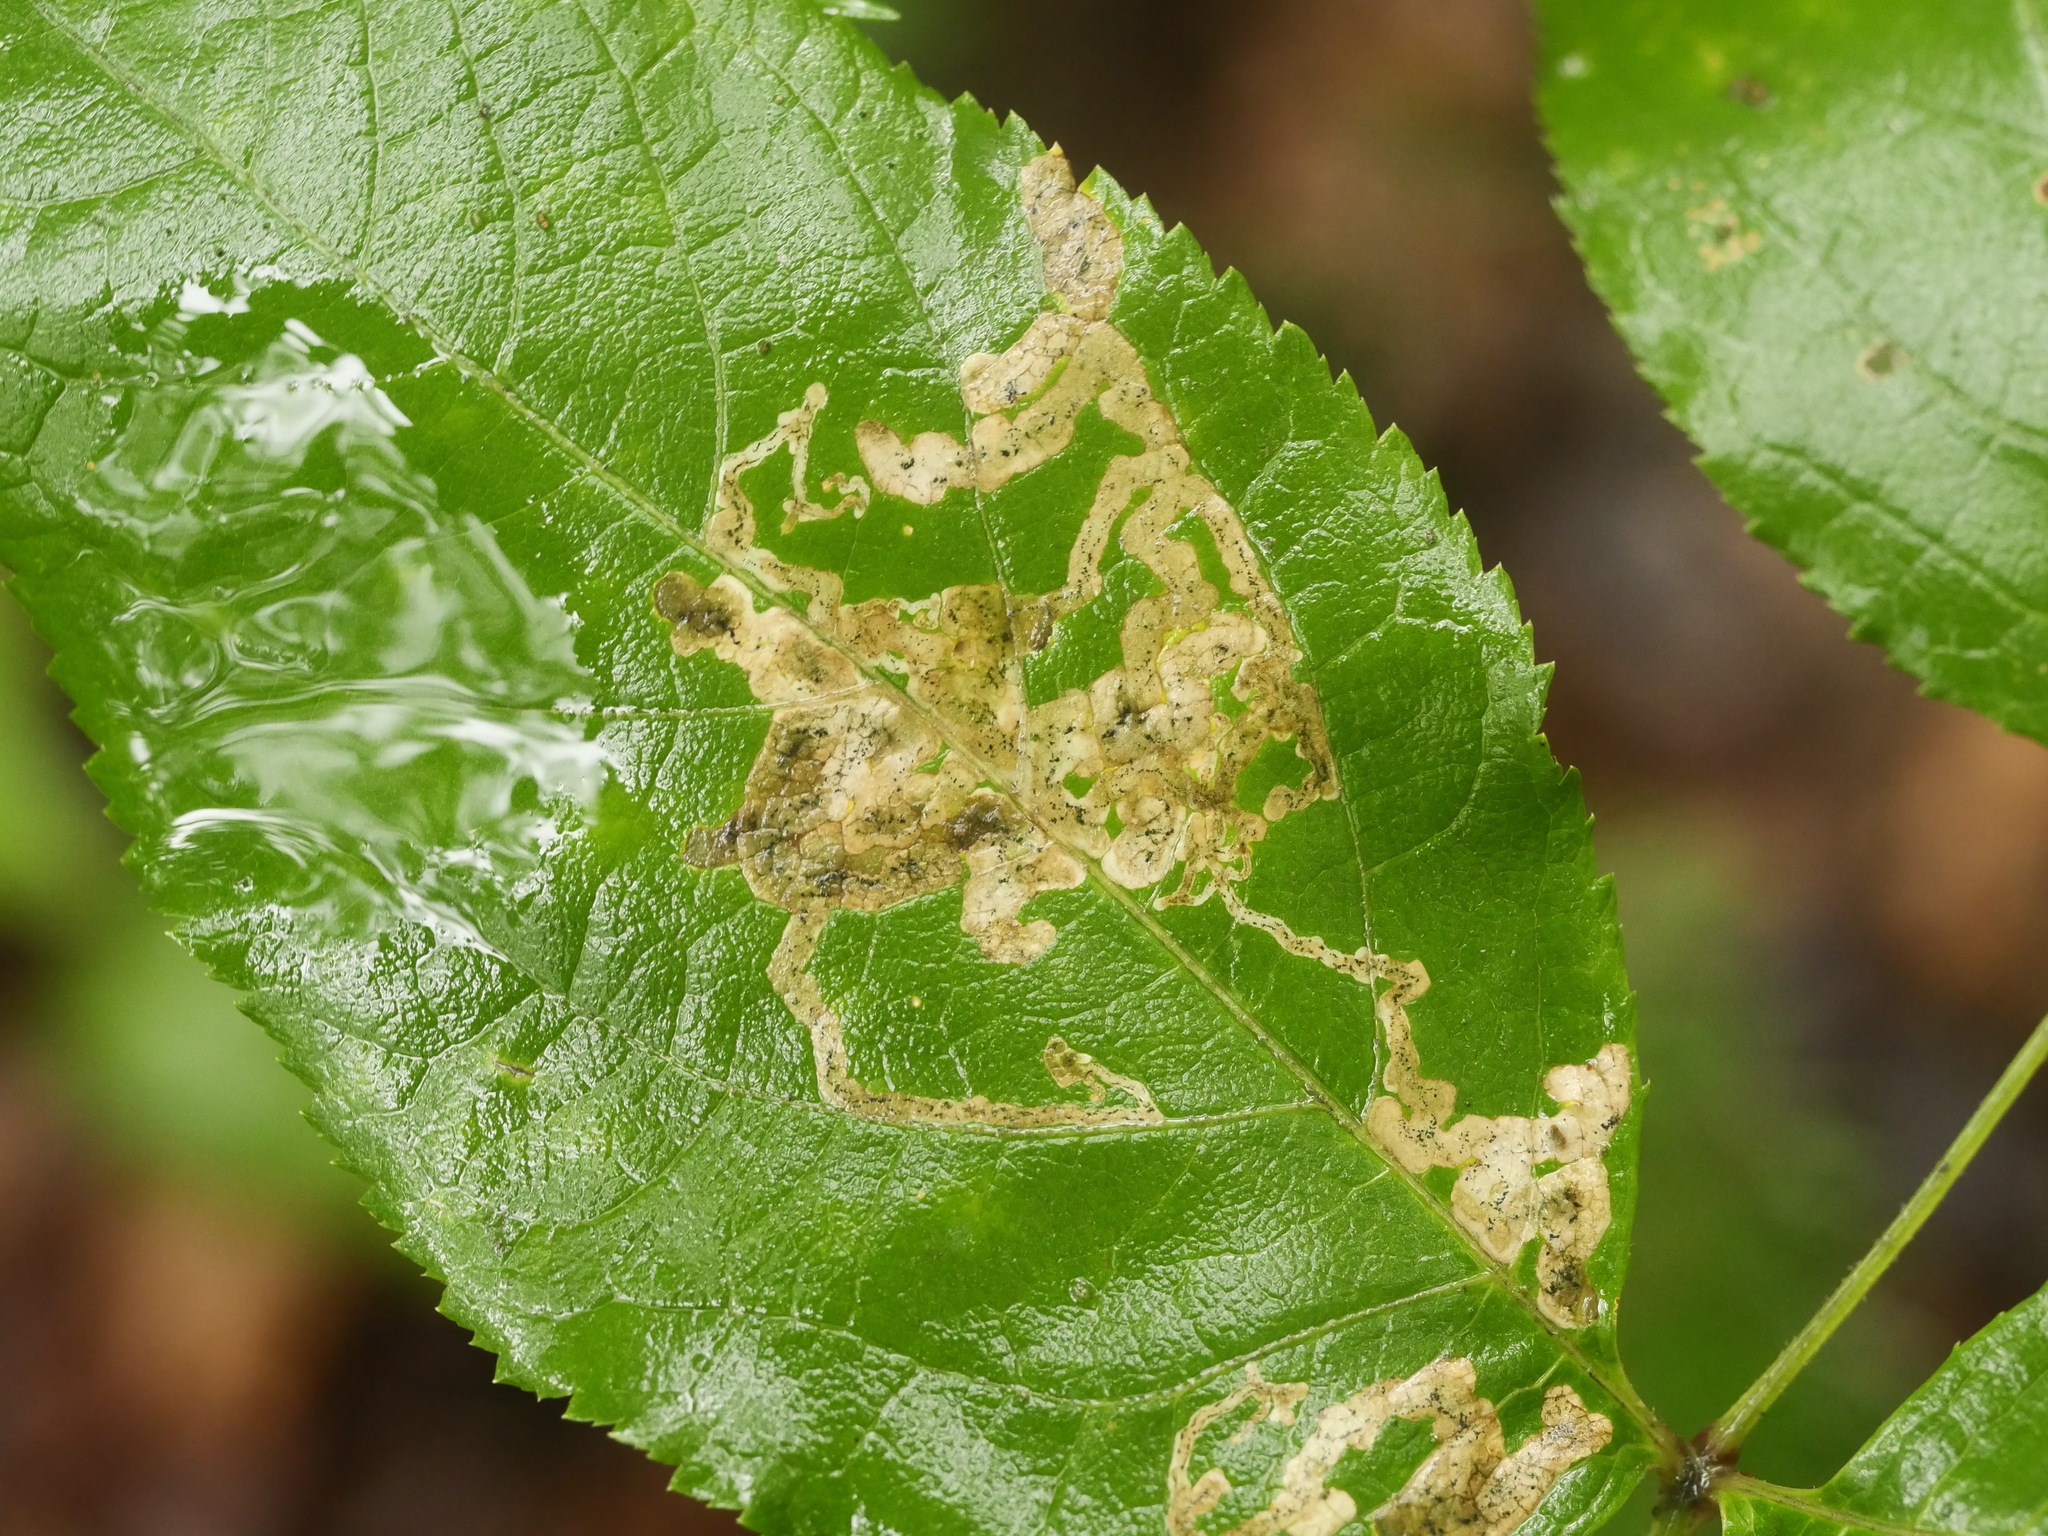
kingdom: Animalia
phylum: Arthropoda
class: Insecta
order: Diptera
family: Agromyzidae
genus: Phytomyza
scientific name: Phytomyza aralivora
